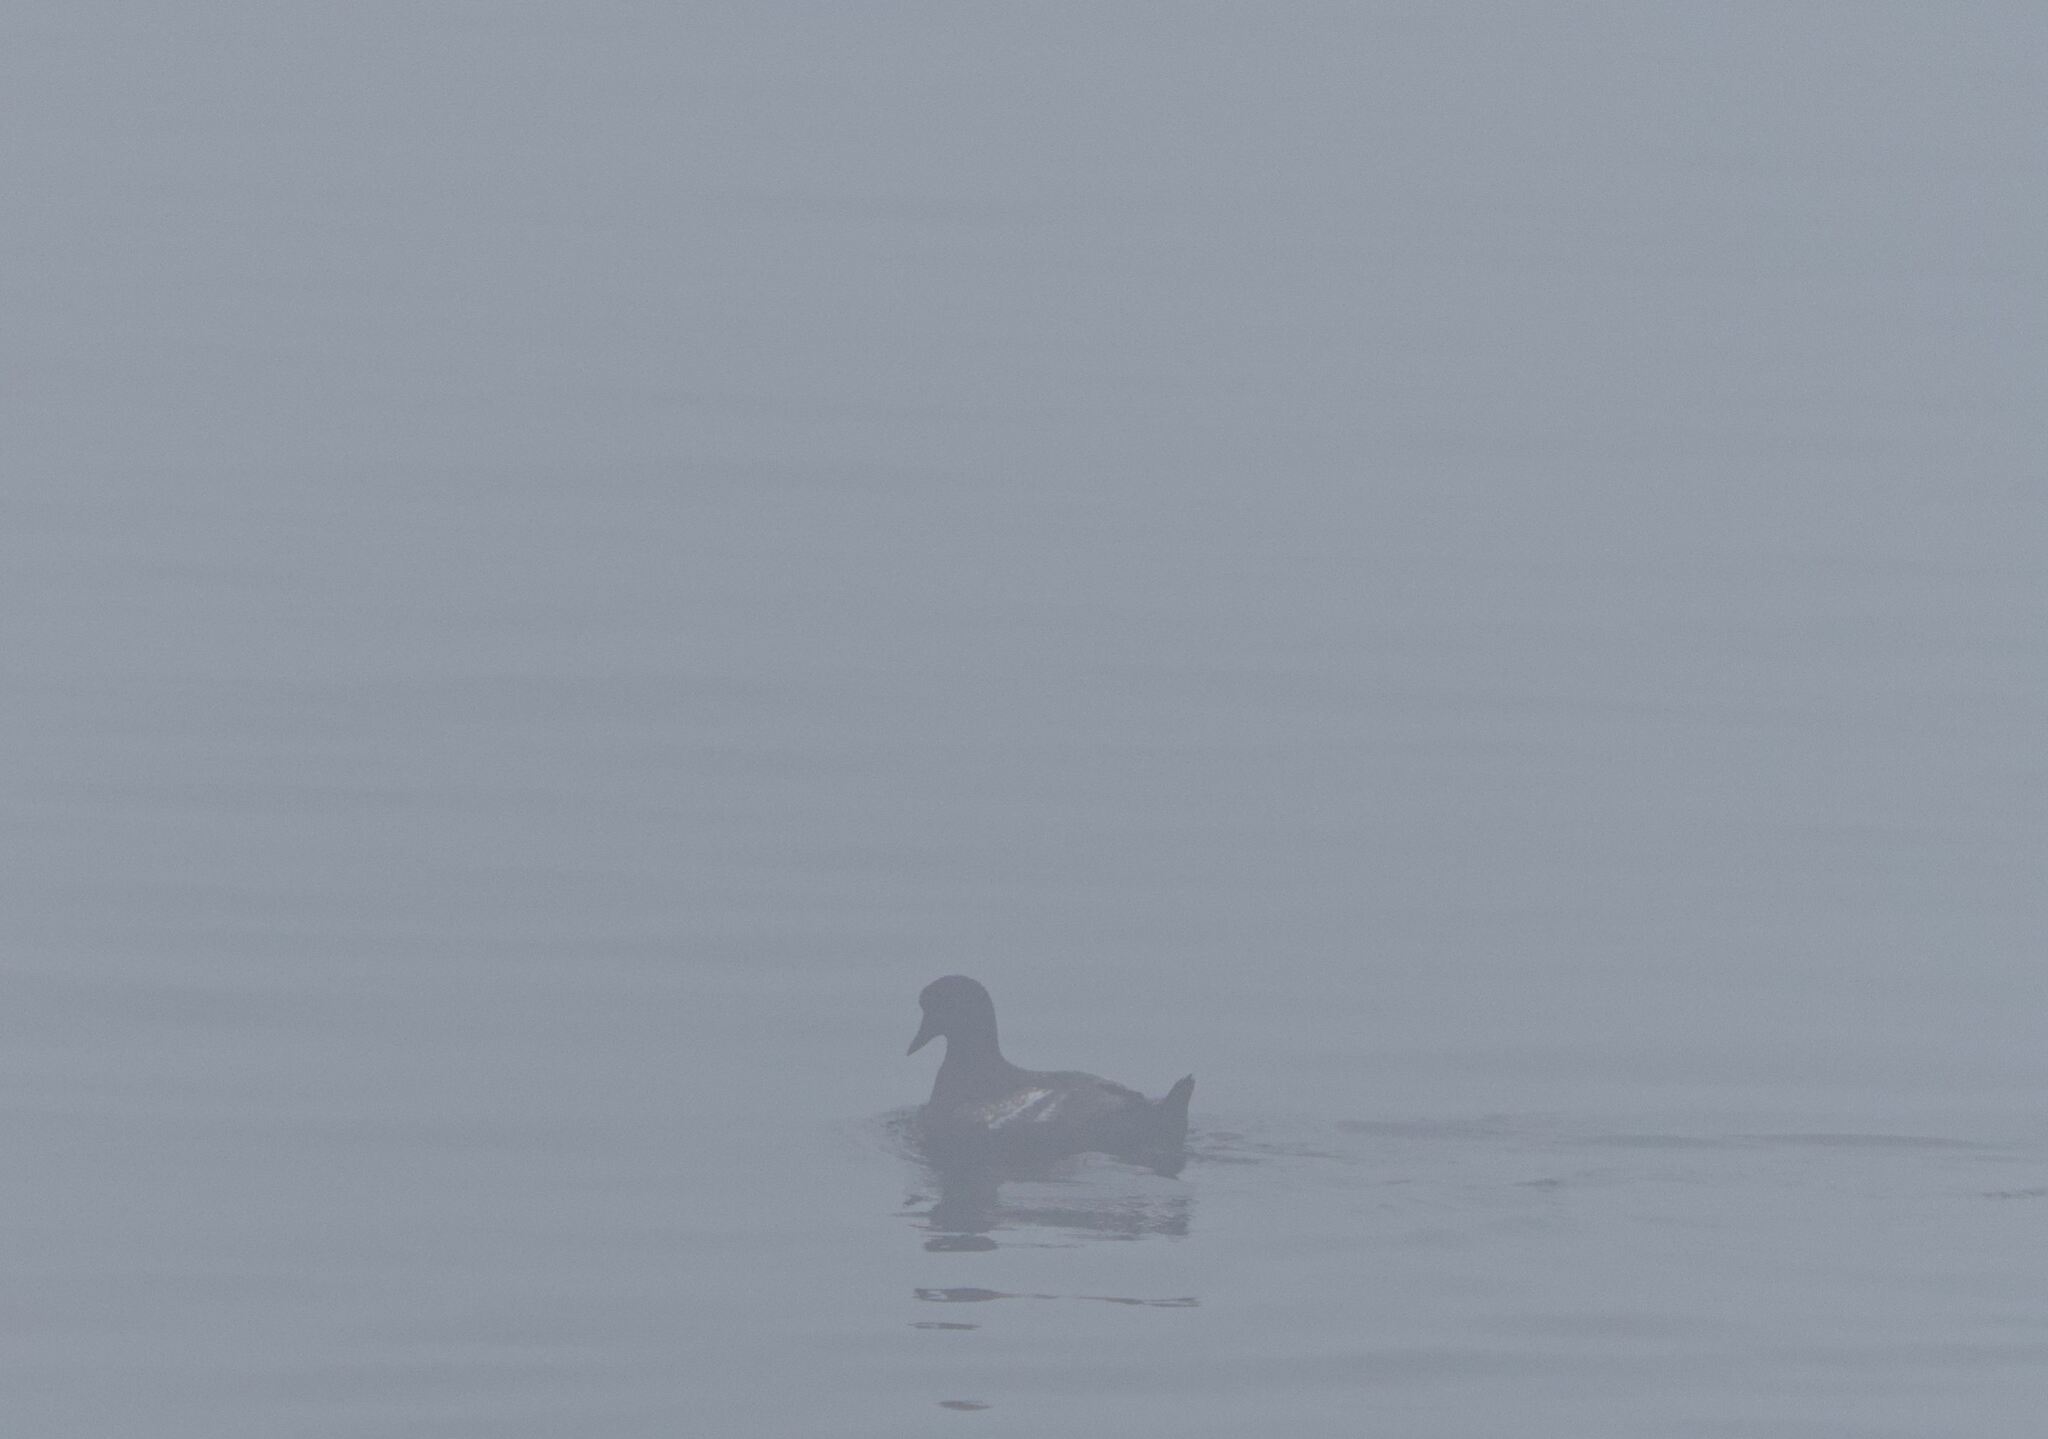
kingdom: Animalia
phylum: Chordata
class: Aves
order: Charadriiformes
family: Alcidae
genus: Cepphus
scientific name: Cepphus grylle
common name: Black guillemot
